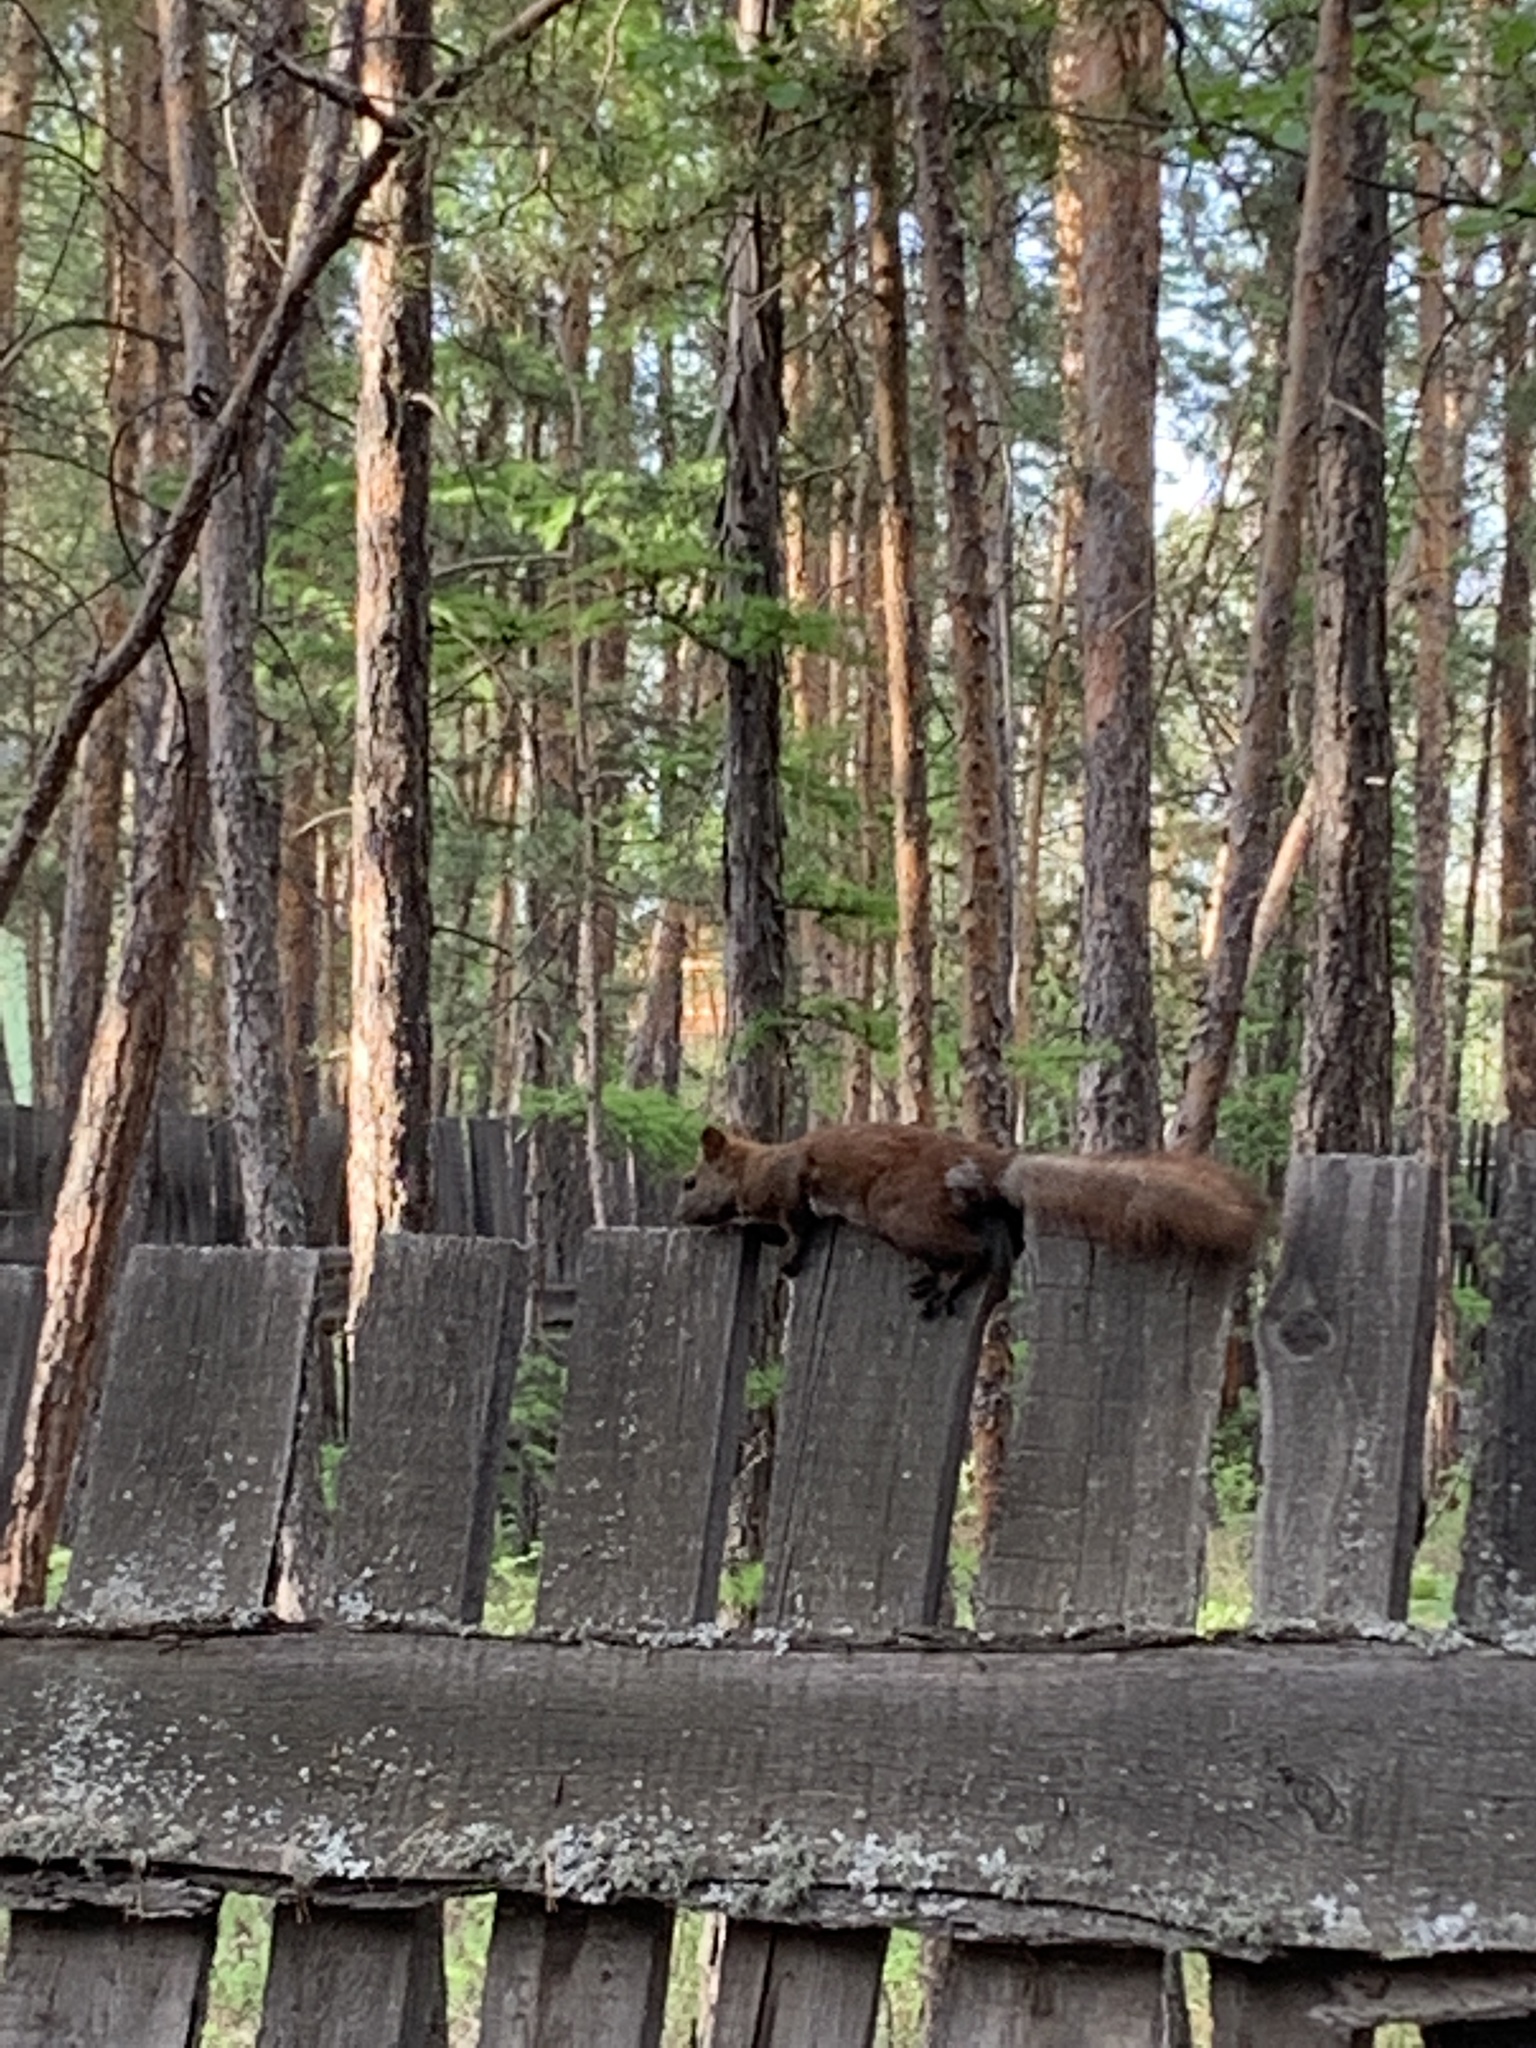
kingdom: Animalia
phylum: Chordata
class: Mammalia
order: Rodentia
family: Sciuridae
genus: Sciurus
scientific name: Sciurus vulgaris
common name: Eurasian red squirrel
